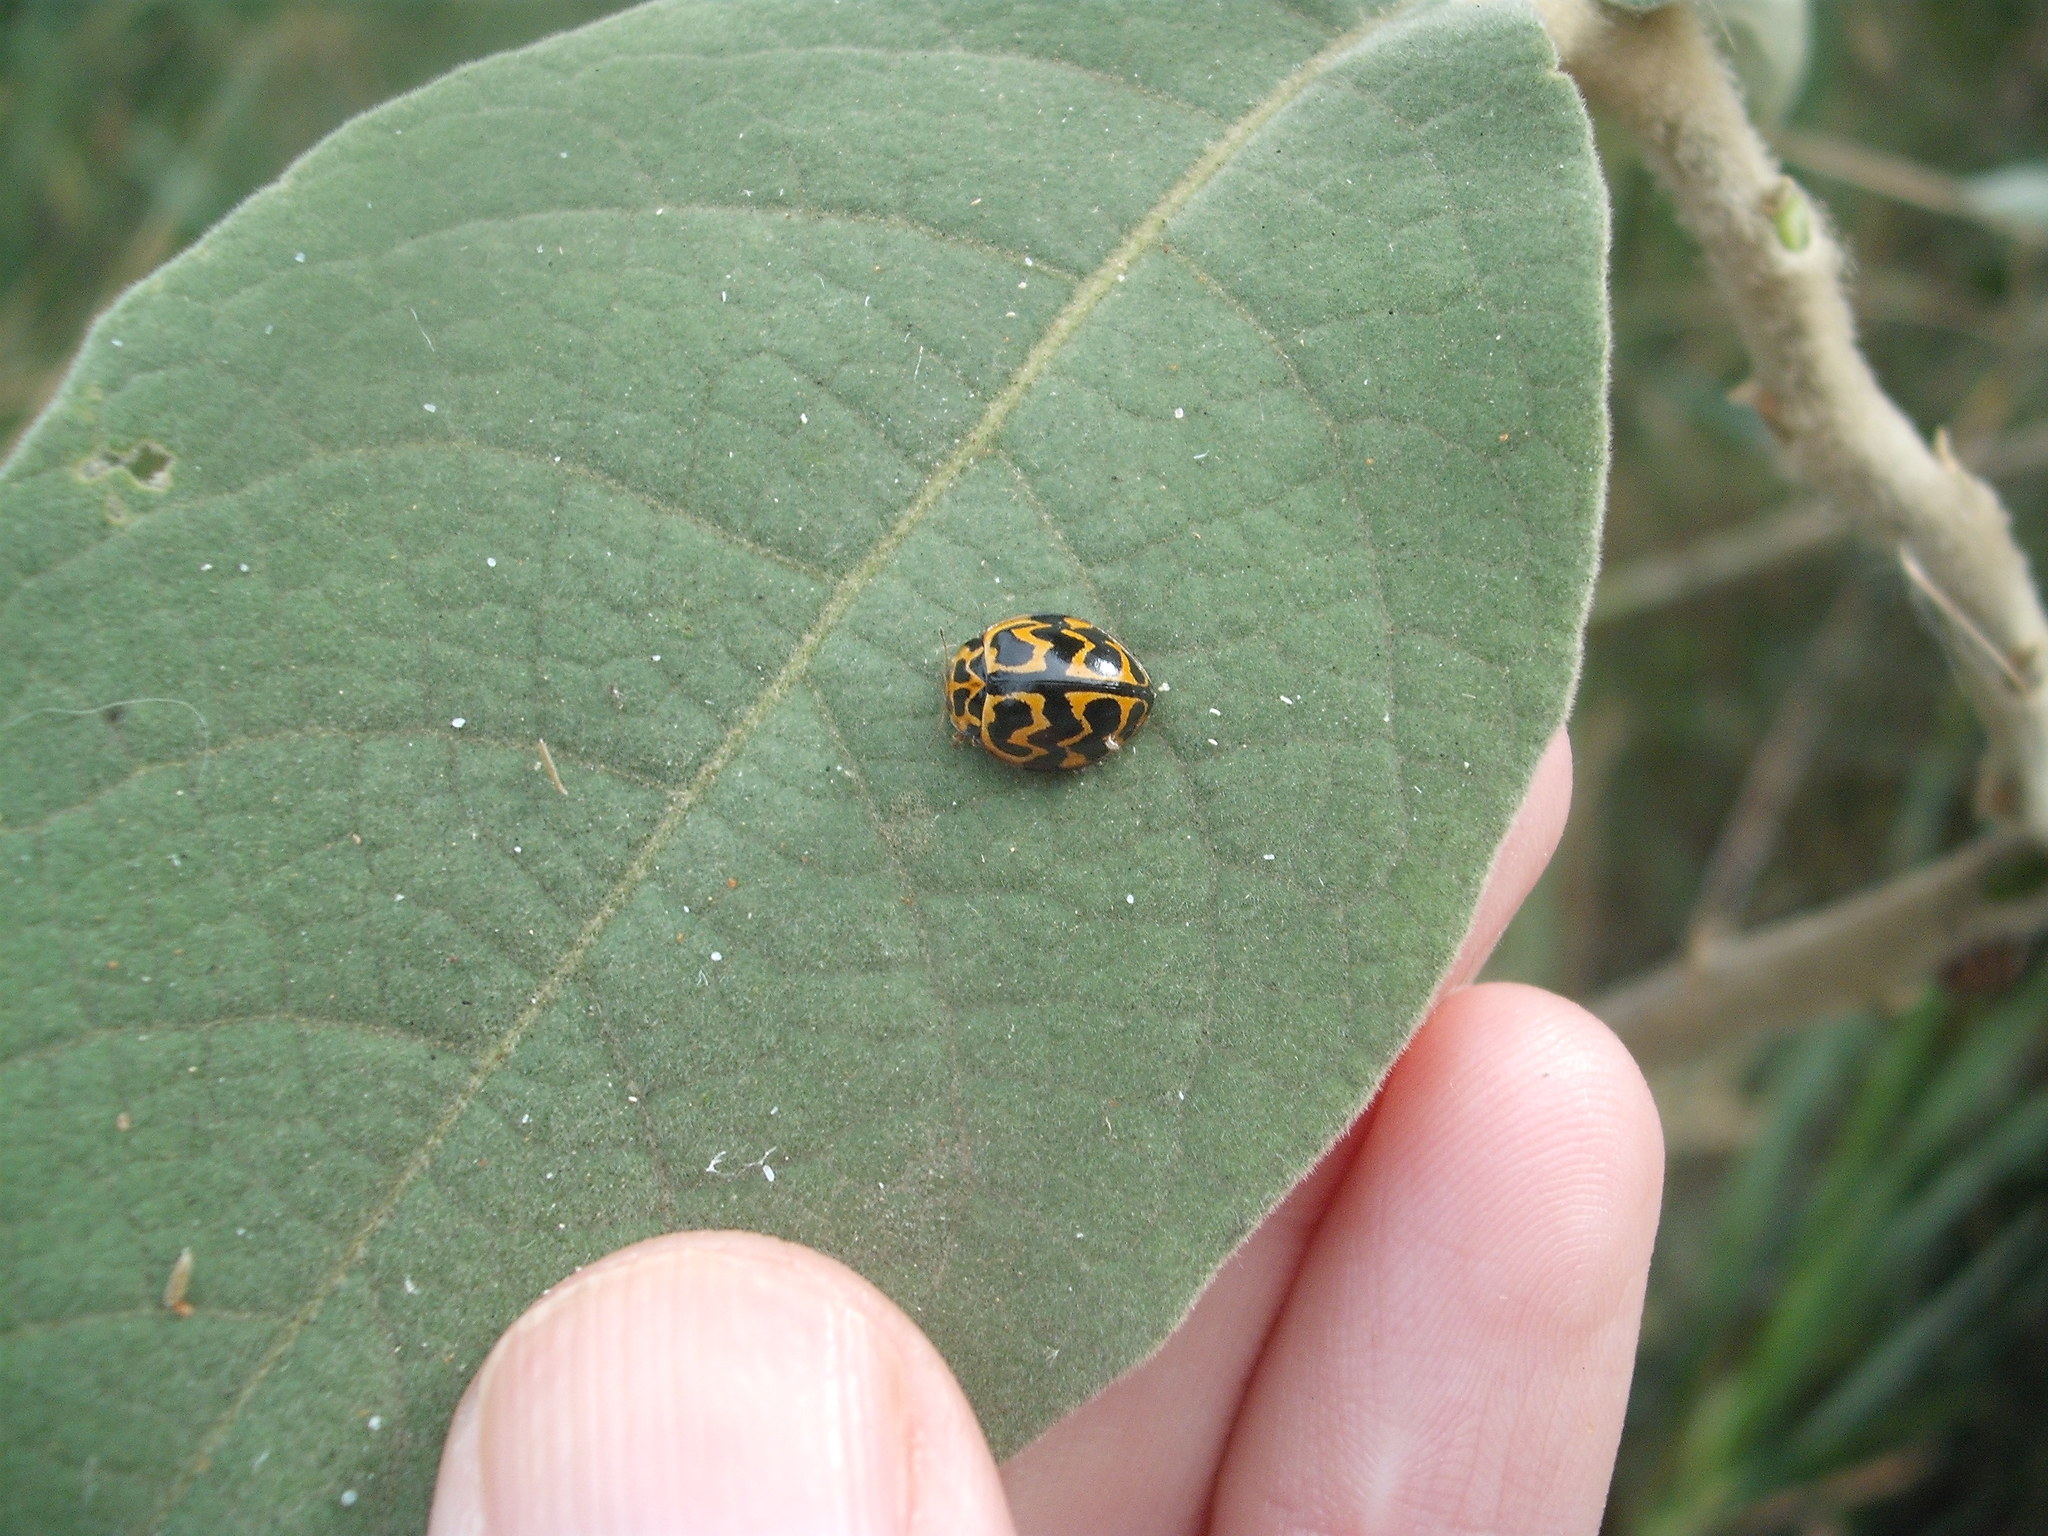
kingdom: Animalia
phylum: Arthropoda
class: Insecta
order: Coleoptera
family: Coccinellidae
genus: Cleobora
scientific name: Cleobora
